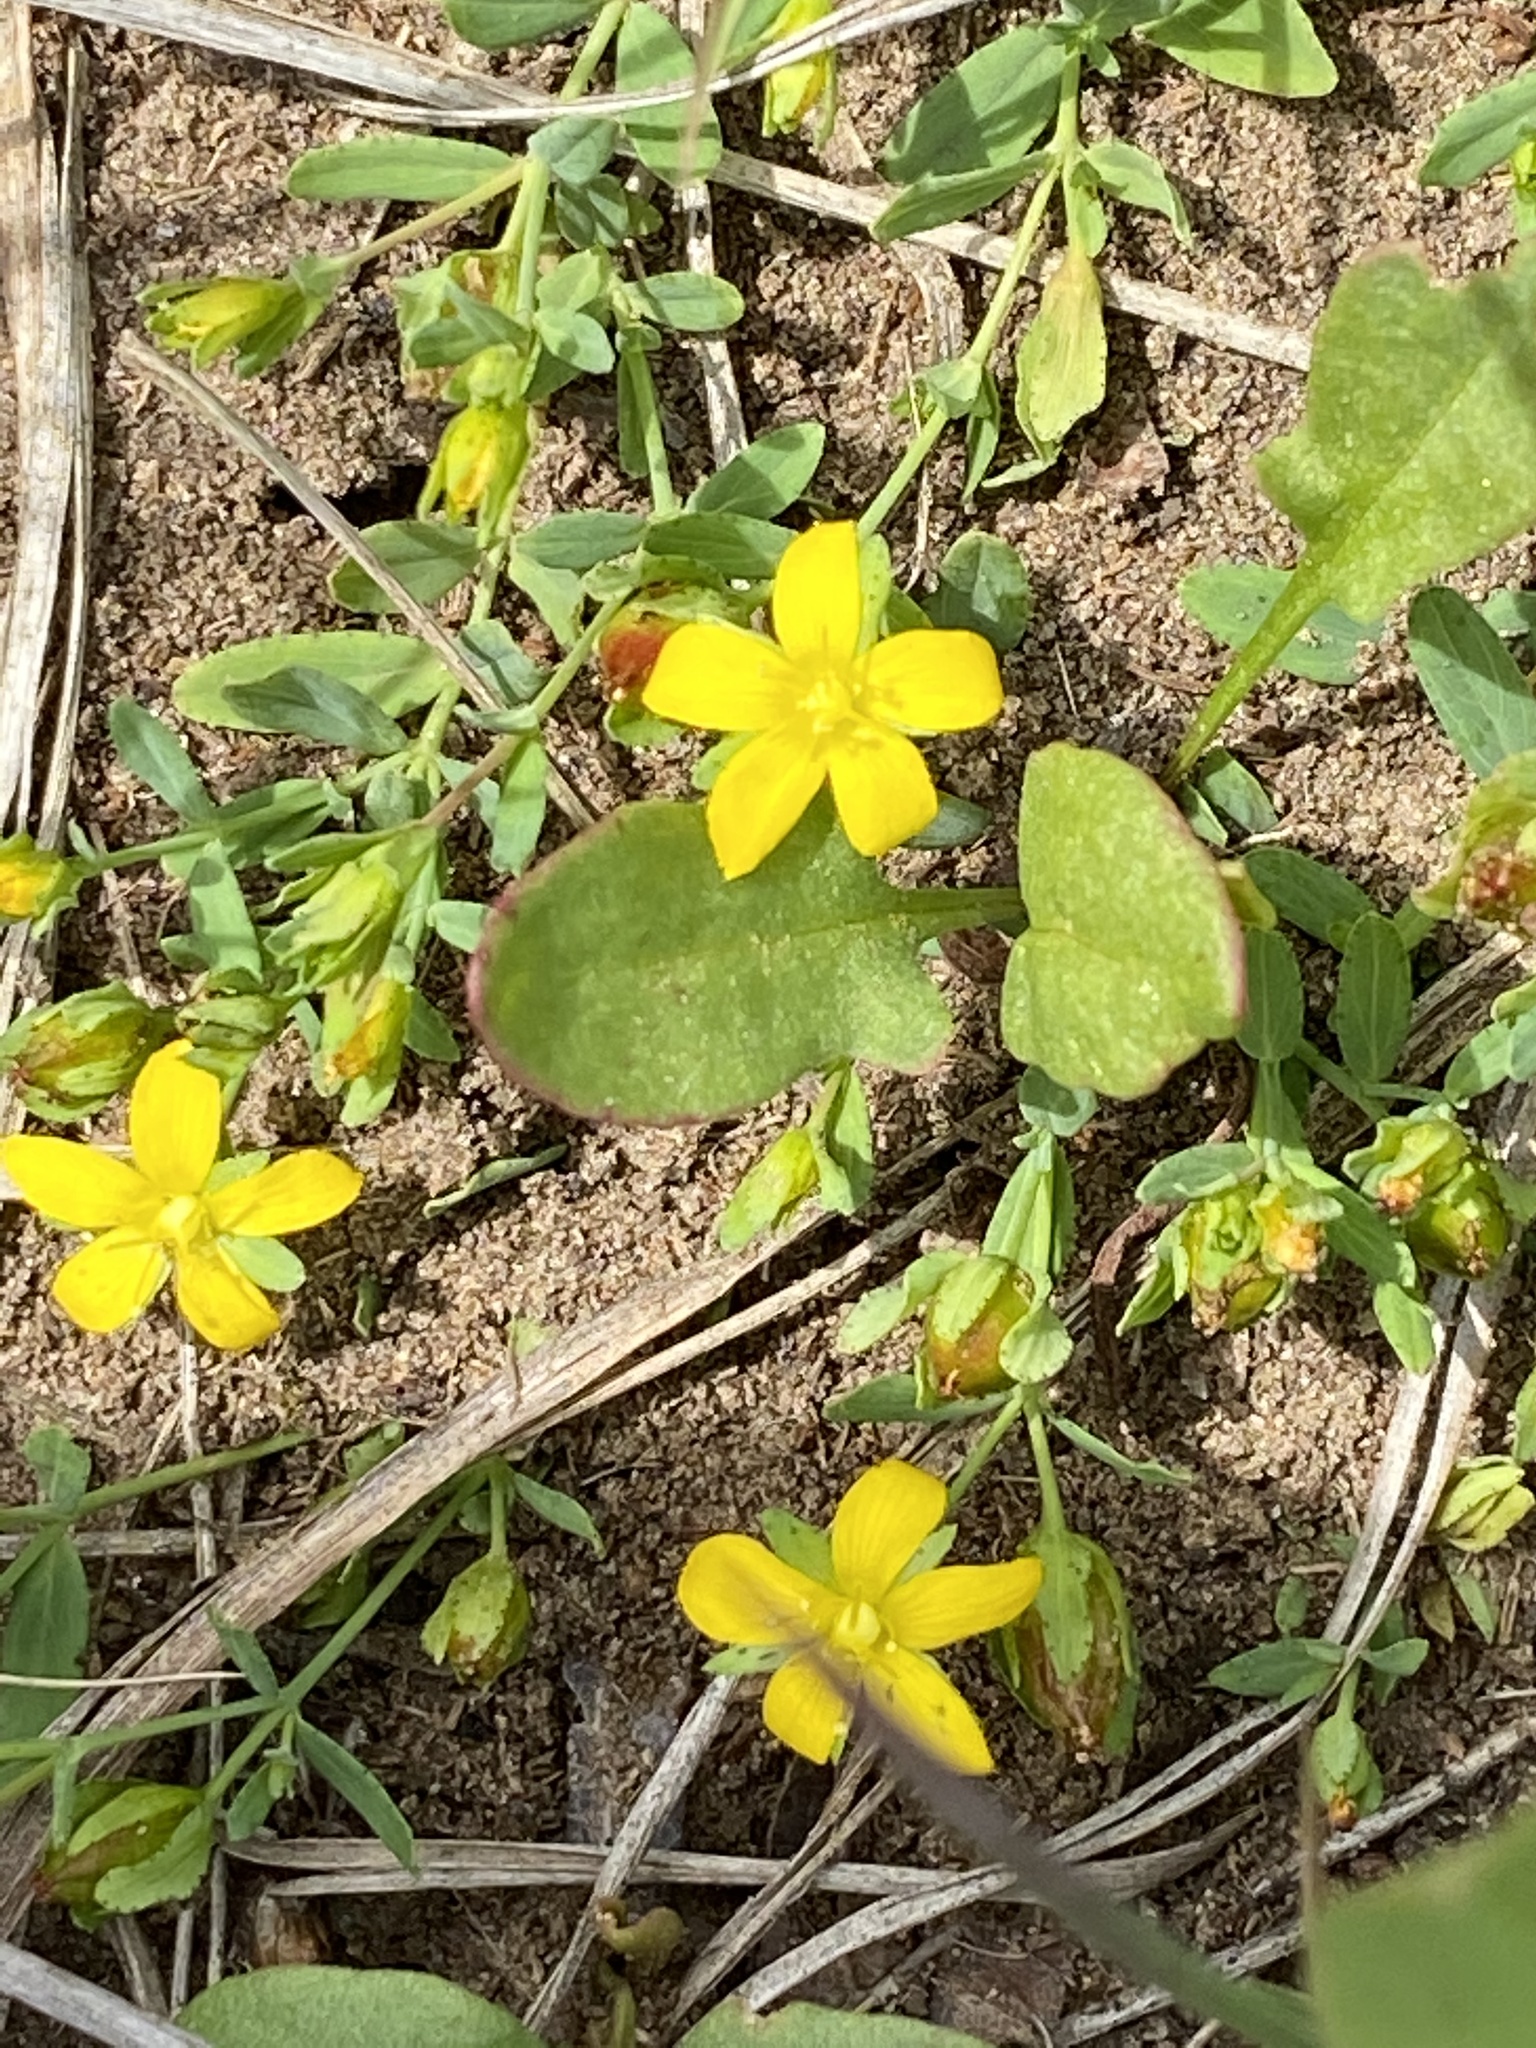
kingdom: Plantae
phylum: Tracheophyta
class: Magnoliopsida
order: Malpighiales
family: Hypericaceae
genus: Hypericum
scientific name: Hypericum humifusum
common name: Trailing st. john's-wort
